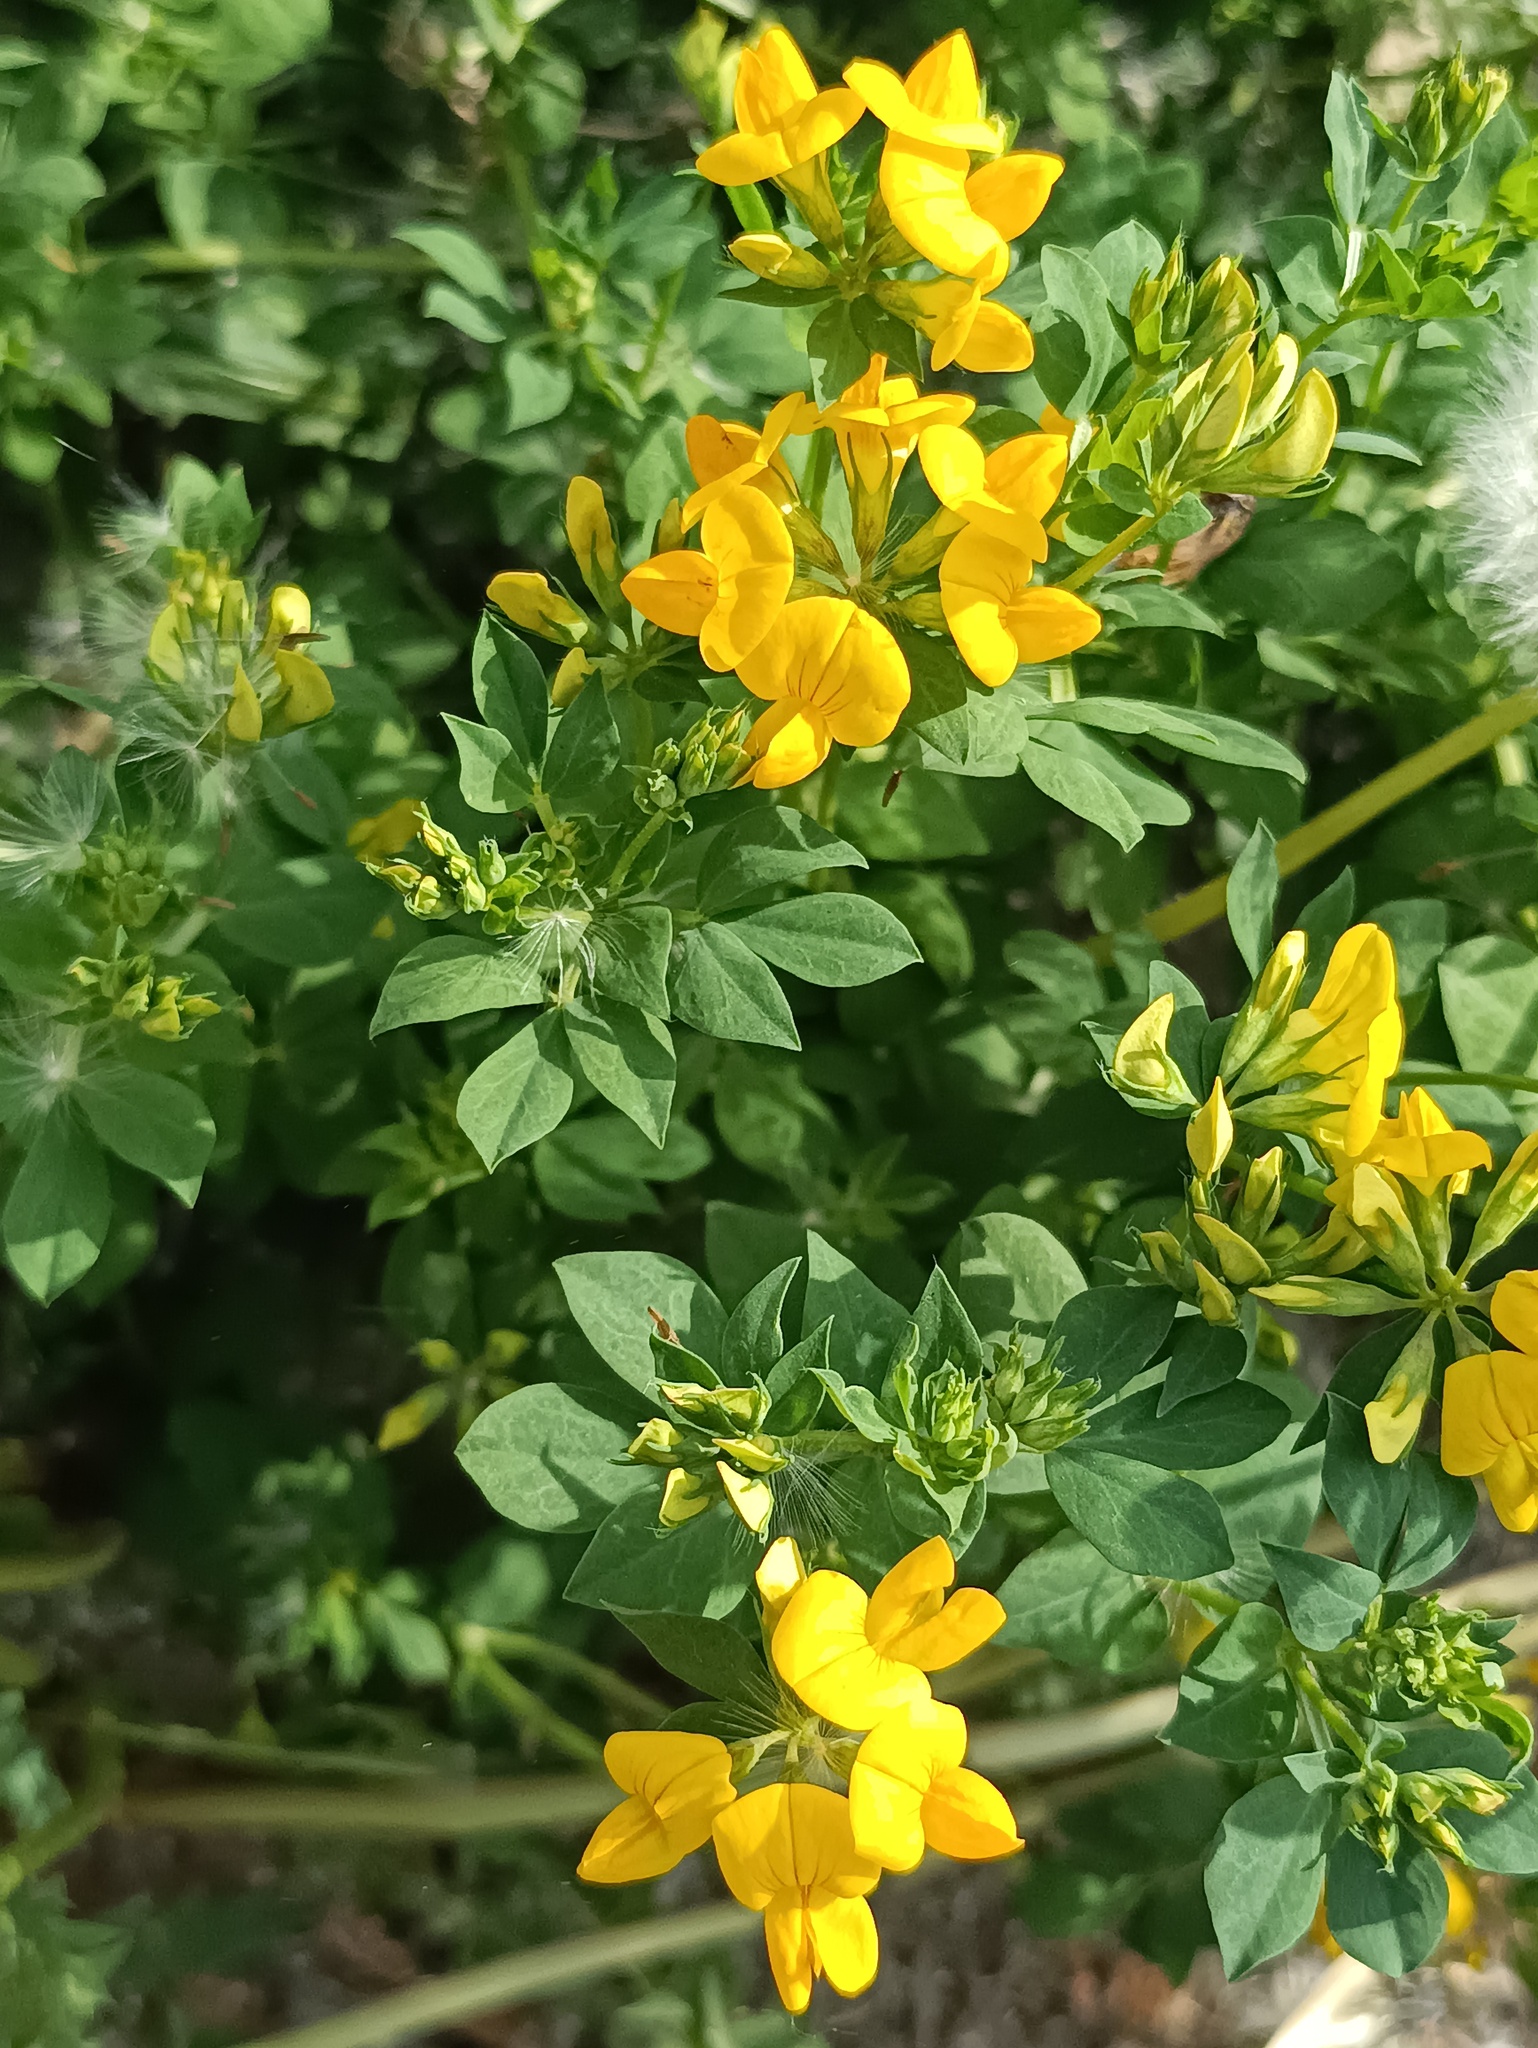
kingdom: Plantae
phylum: Tracheophyta
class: Magnoliopsida
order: Fabales
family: Fabaceae
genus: Lotus
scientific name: Lotus corniculatus
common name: Common bird's-foot-trefoil
